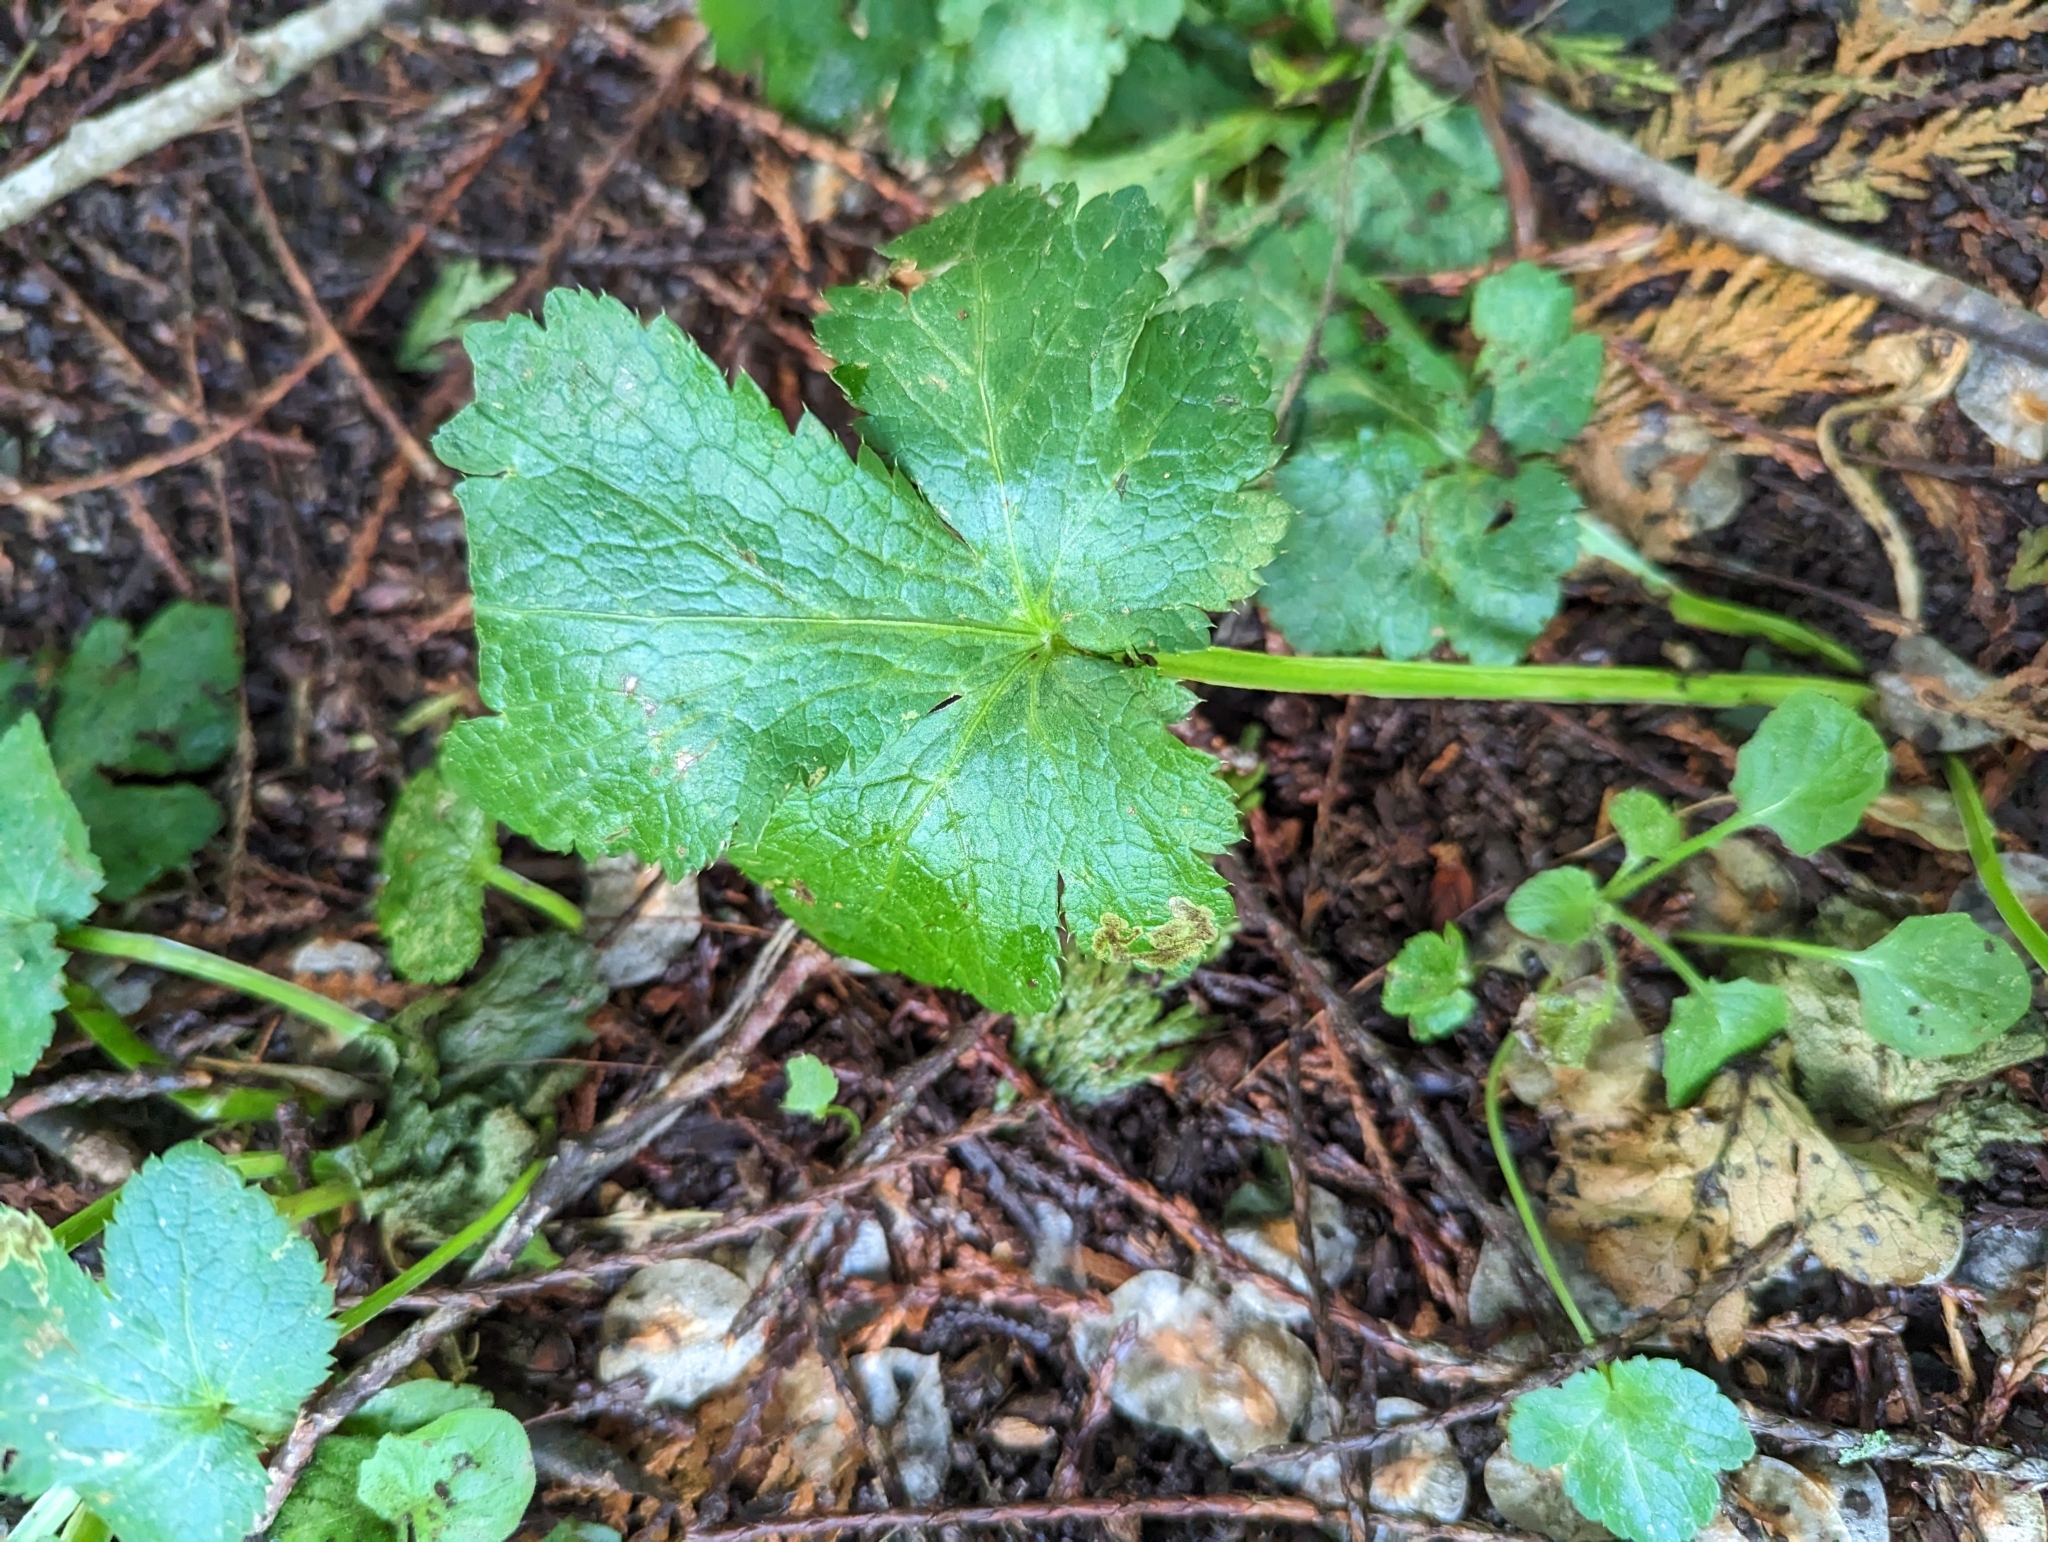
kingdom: Plantae
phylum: Tracheophyta
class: Magnoliopsida
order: Apiales
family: Apiaceae
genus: Sanicula
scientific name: Sanicula crassicaulis
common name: Western snakeroot
